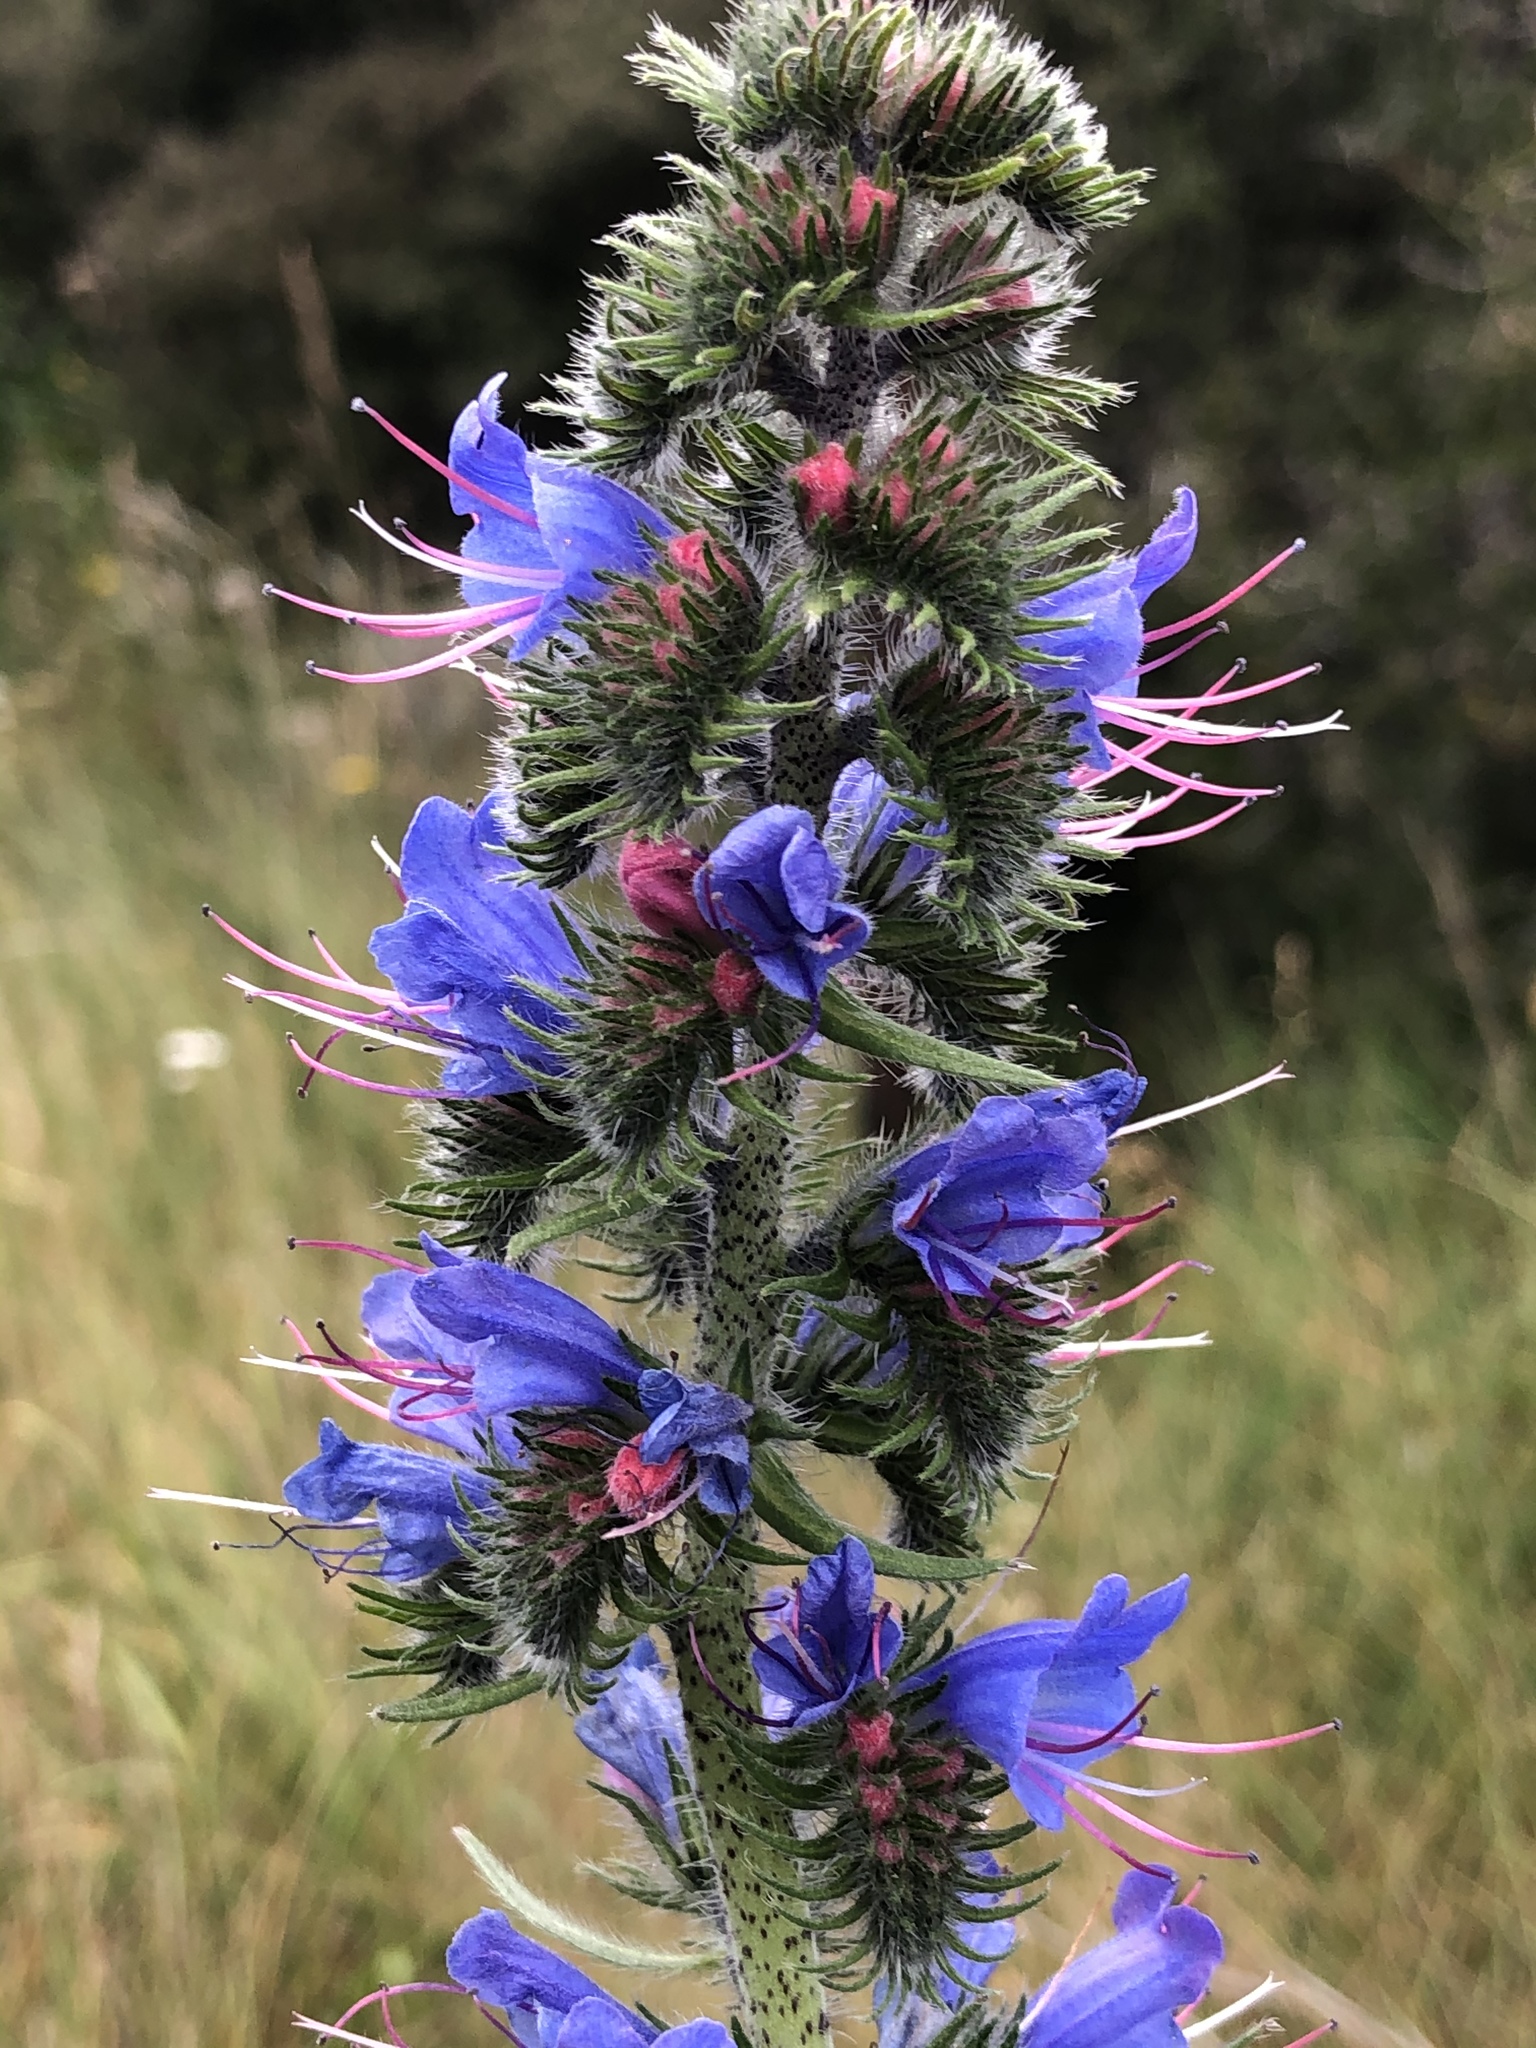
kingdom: Plantae
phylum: Tracheophyta
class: Magnoliopsida
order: Boraginales
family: Boraginaceae
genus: Echium
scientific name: Echium vulgare
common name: Common viper's bugloss
